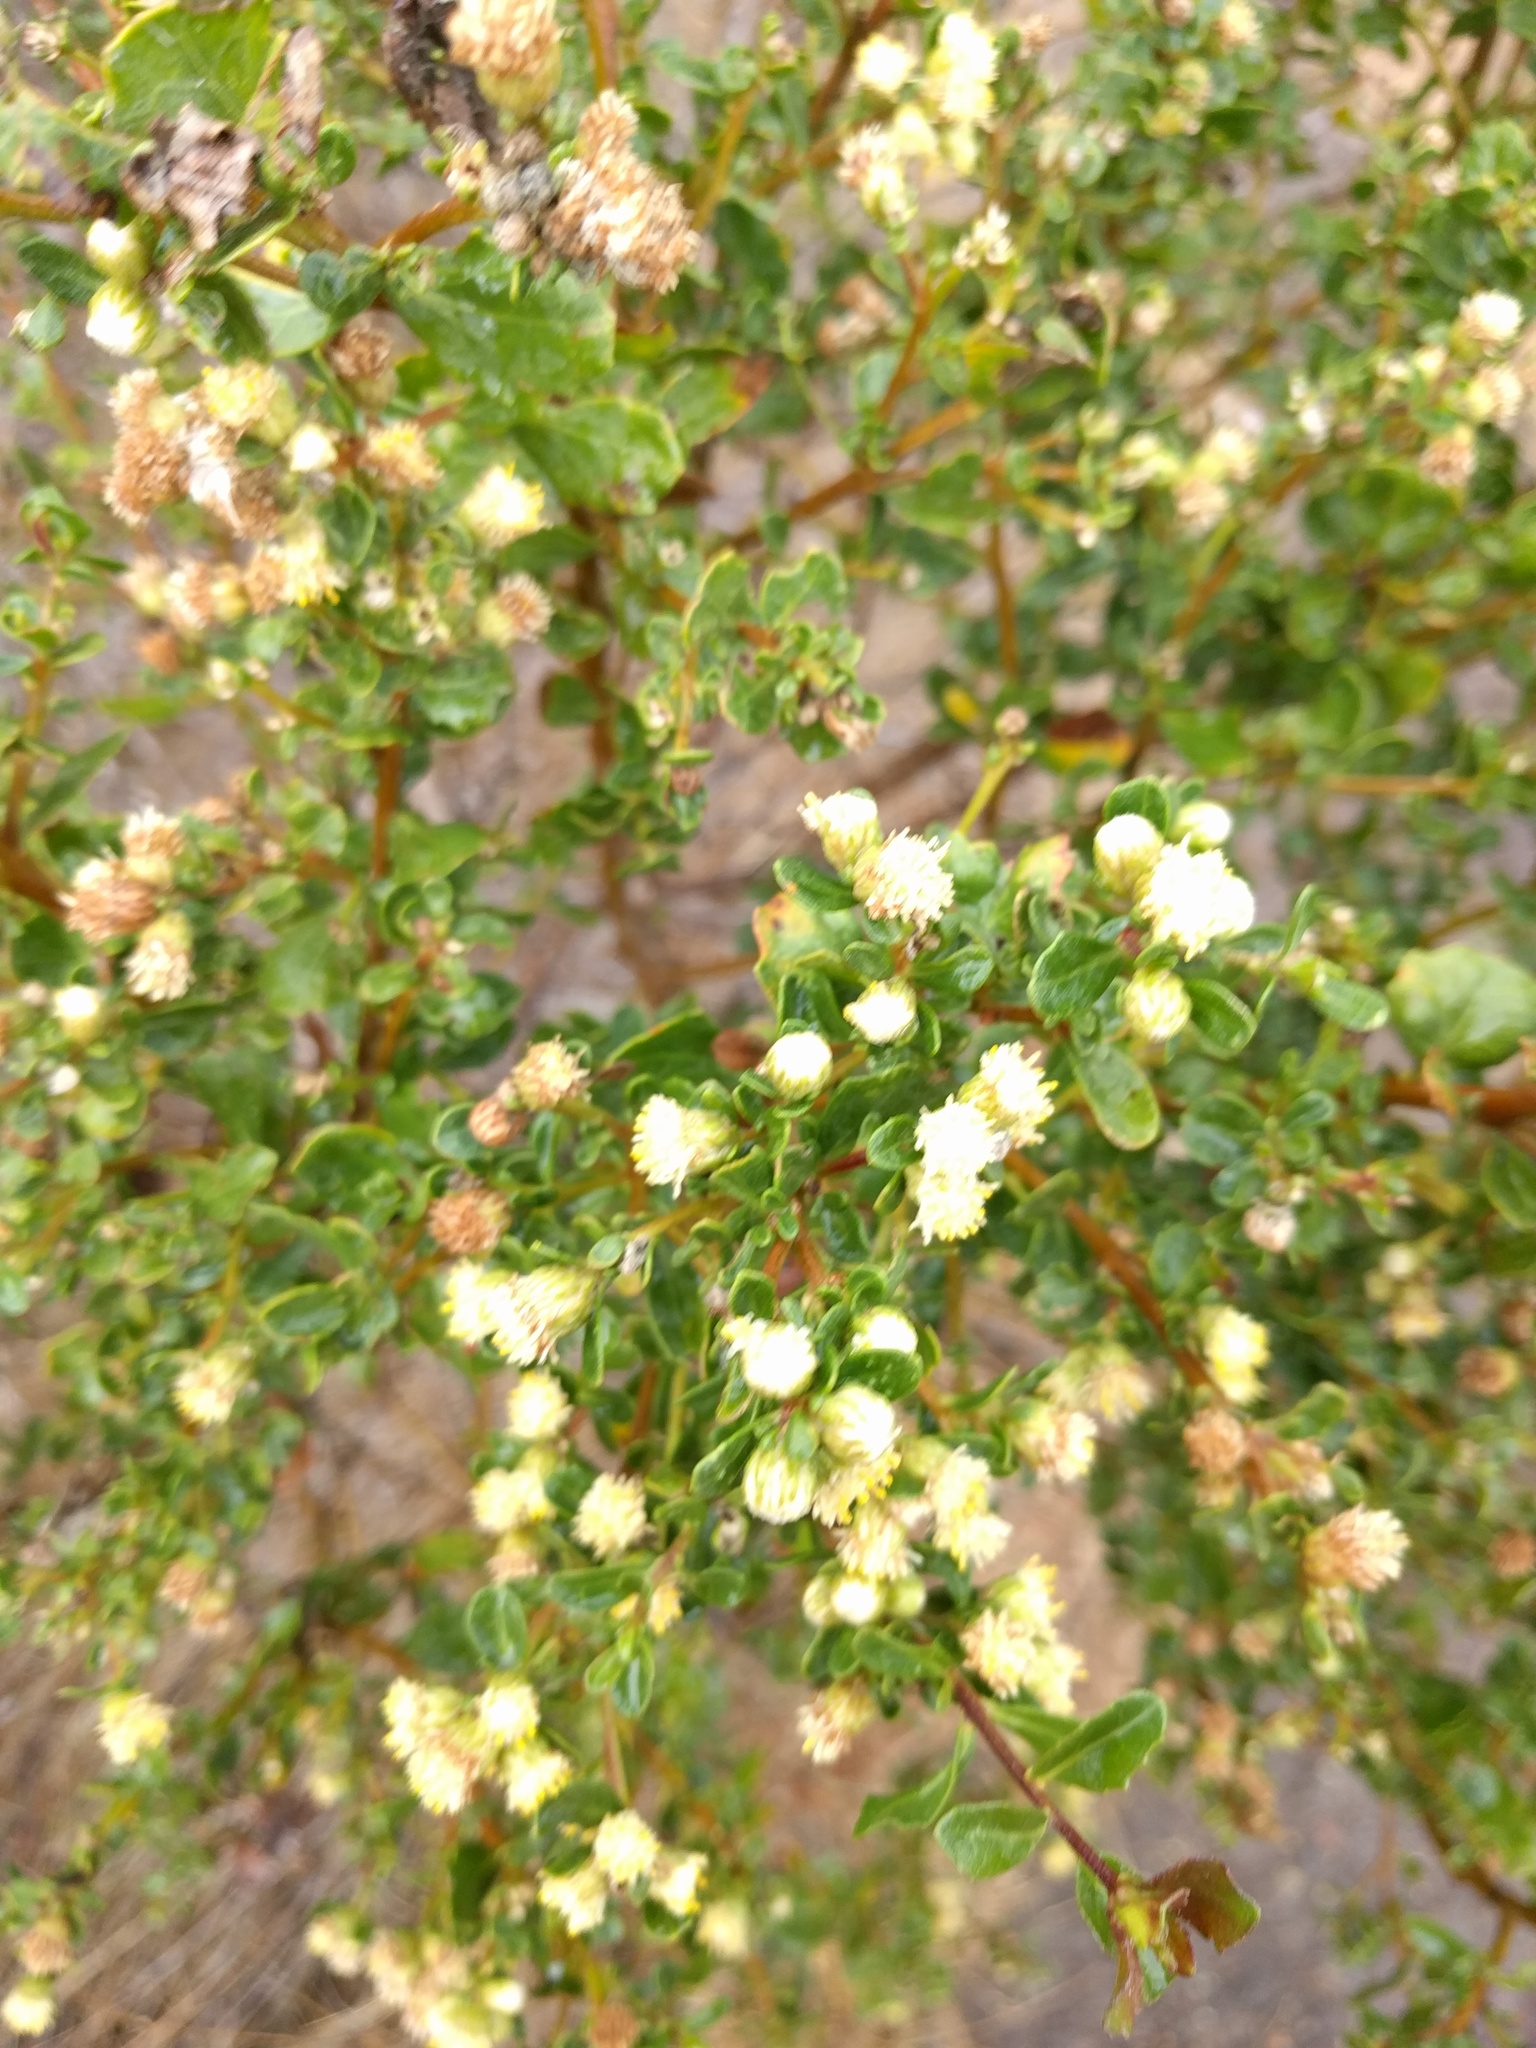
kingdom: Plantae
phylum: Tracheophyta
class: Magnoliopsida
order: Asterales
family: Asteraceae
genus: Baccharis
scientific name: Baccharis pilularis
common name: Coyotebrush
